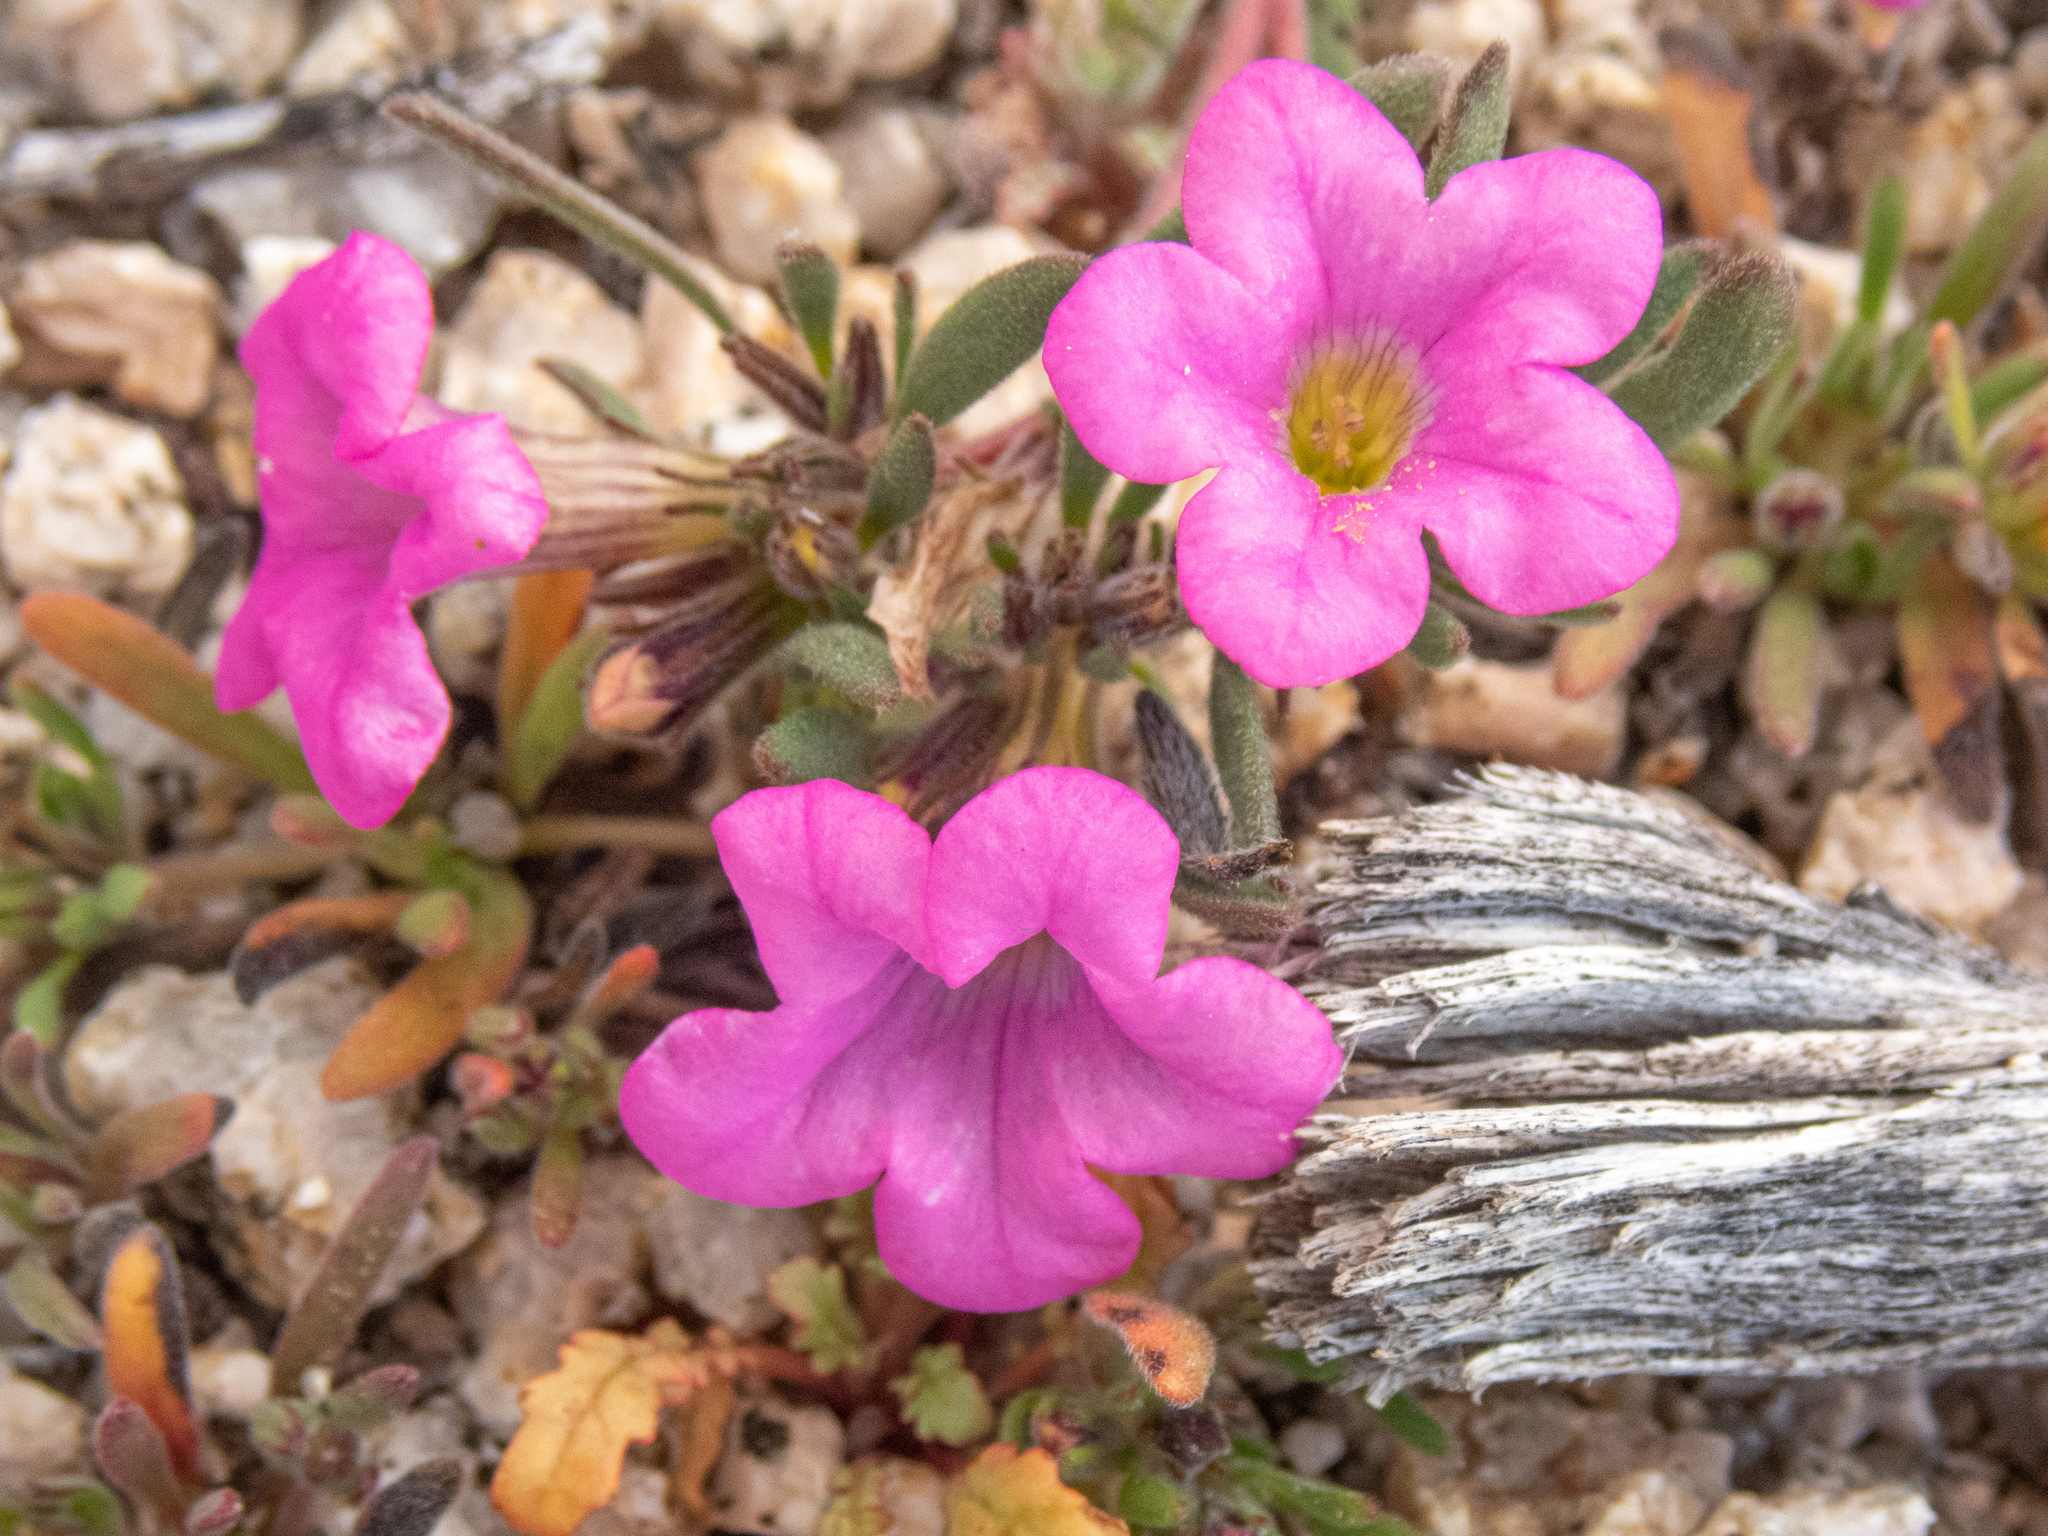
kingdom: Plantae
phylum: Tracheophyta
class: Magnoliopsida
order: Boraginales
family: Namaceae
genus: Nama
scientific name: Nama demissa
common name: Leafy nama
